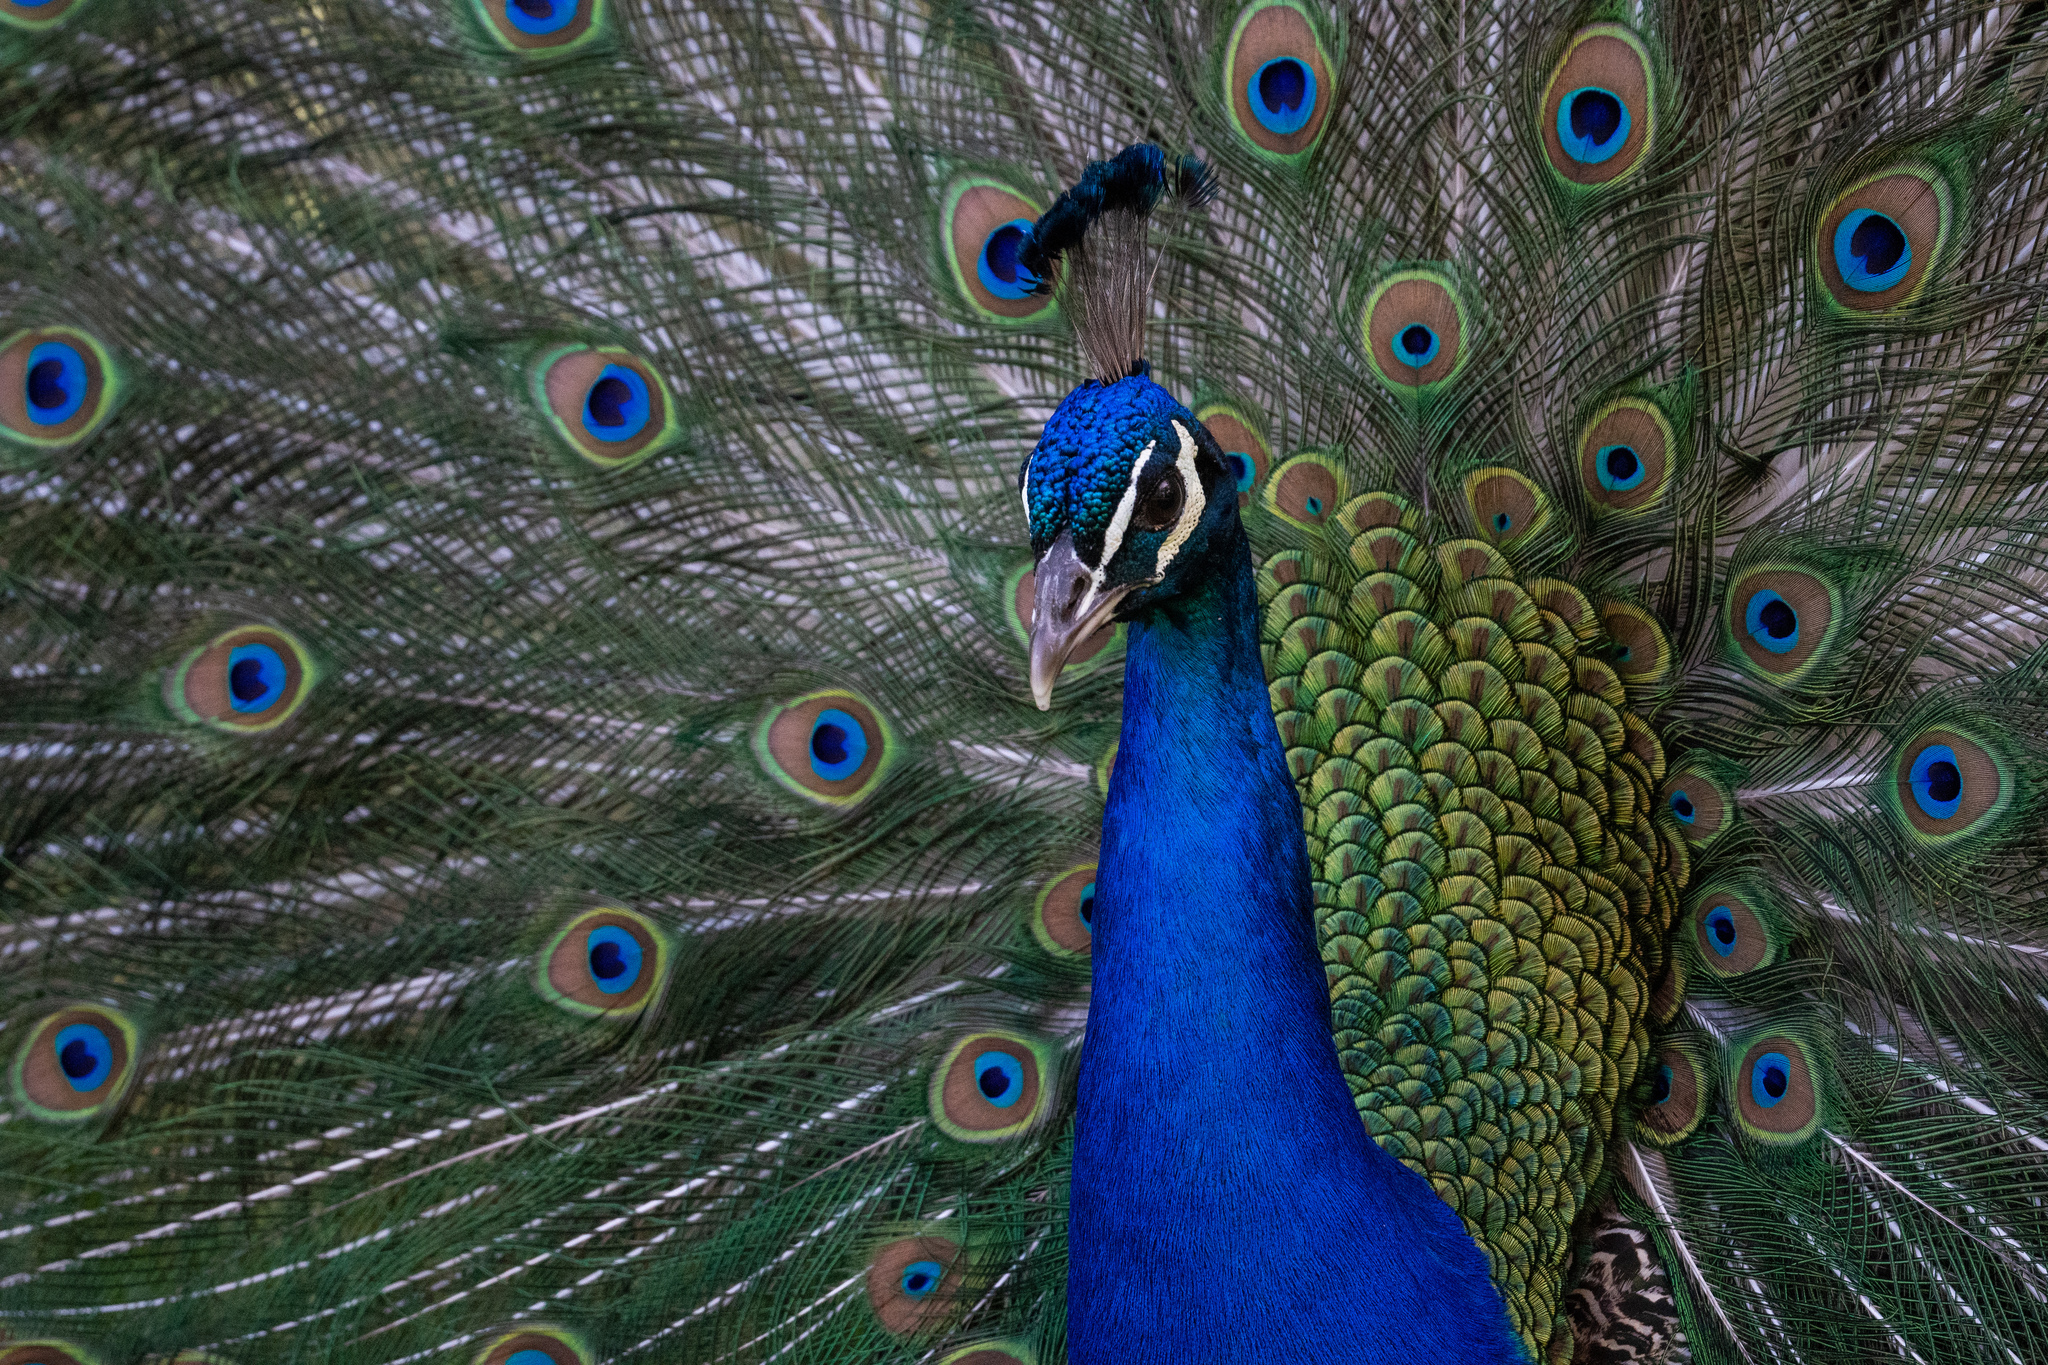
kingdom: Animalia
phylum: Chordata
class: Aves
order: Galliformes
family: Phasianidae
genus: Pavo
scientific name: Pavo cristatus
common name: Indian peafowl
